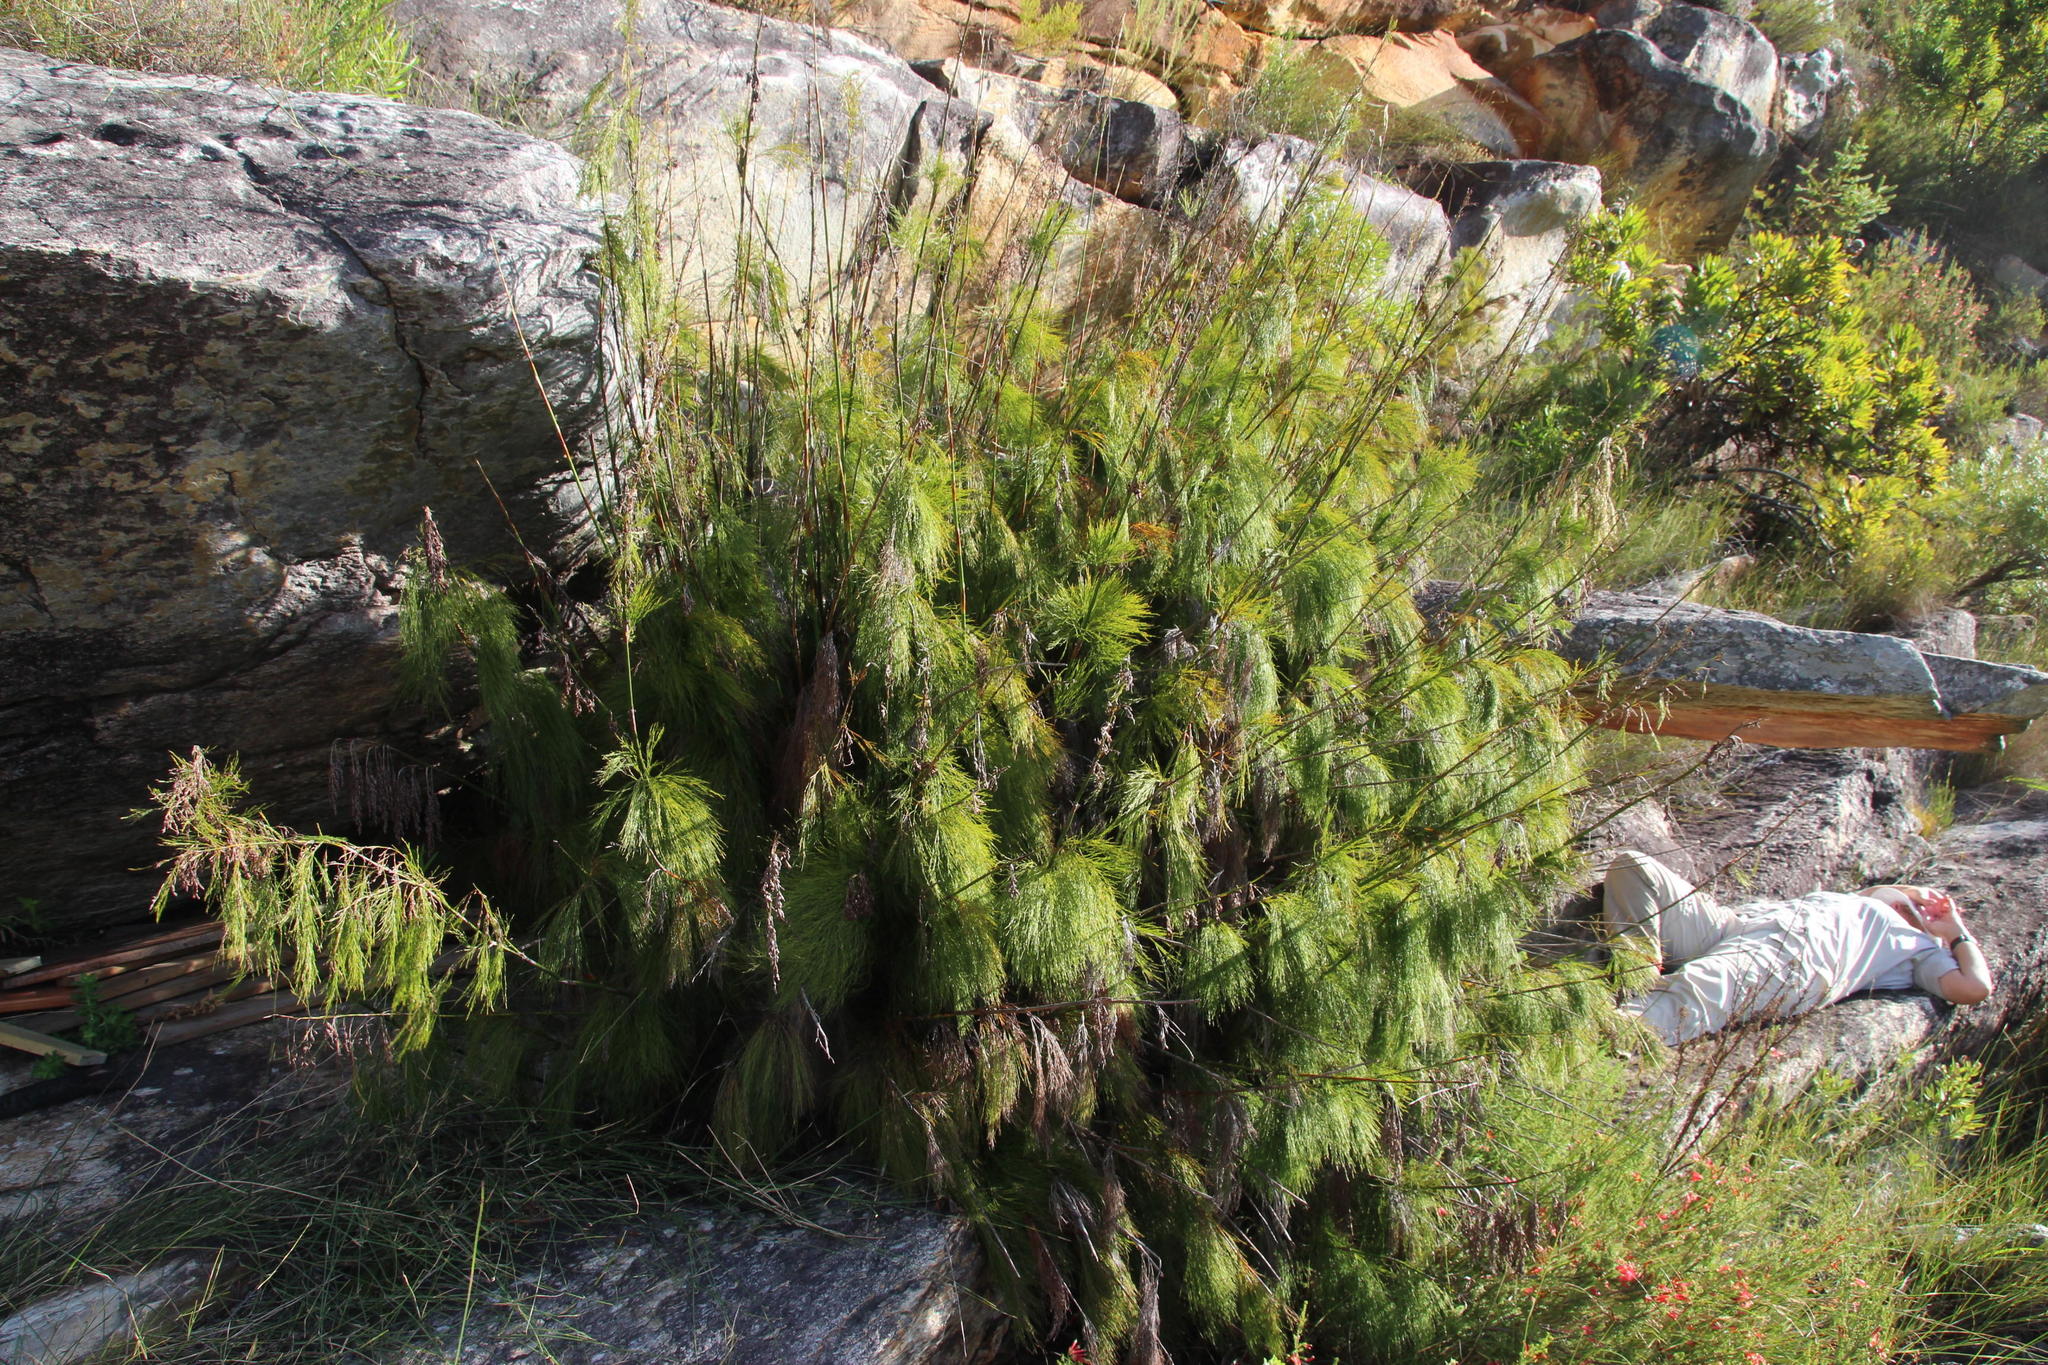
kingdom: Plantae
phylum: Tracheophyta
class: Liliopsida
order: Poales
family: Restionaceae
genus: Elegia
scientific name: Elegia capensis
